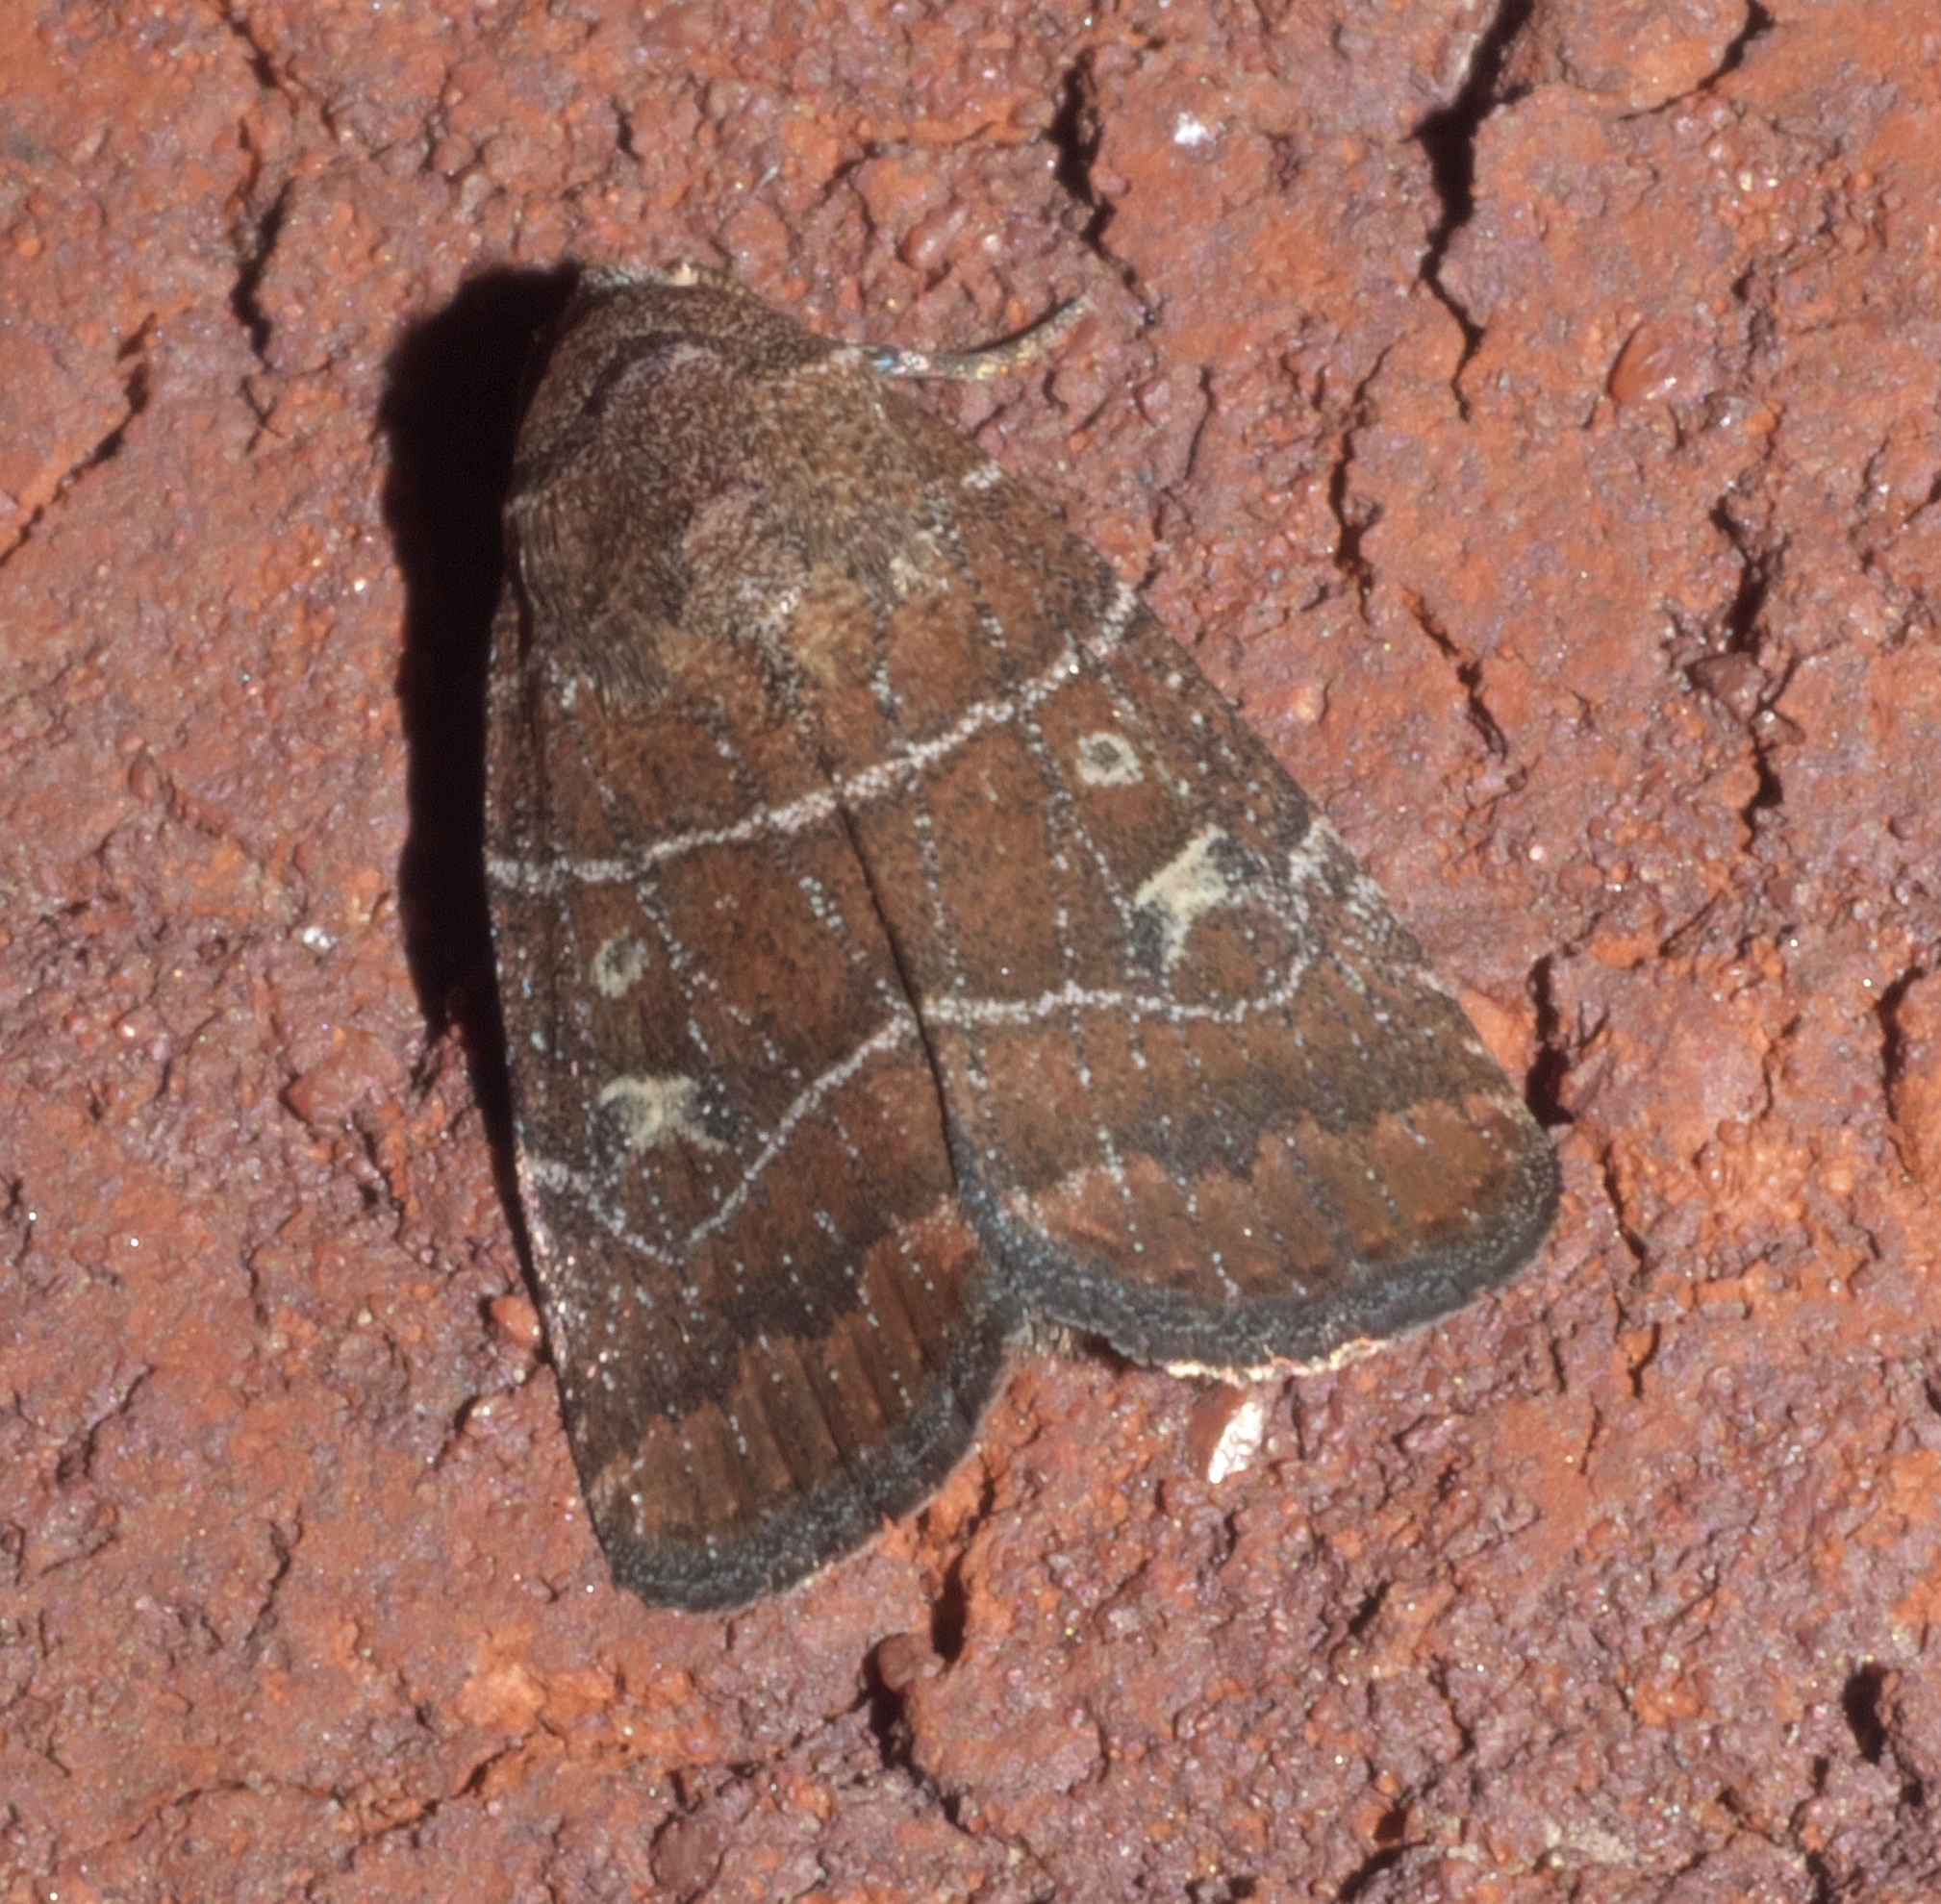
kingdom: Animalia
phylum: Arthropoda
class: Insecta
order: Lepidoptera
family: Noctuidae
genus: Elaphria
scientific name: Elaphria grata
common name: Grateful midget moth
